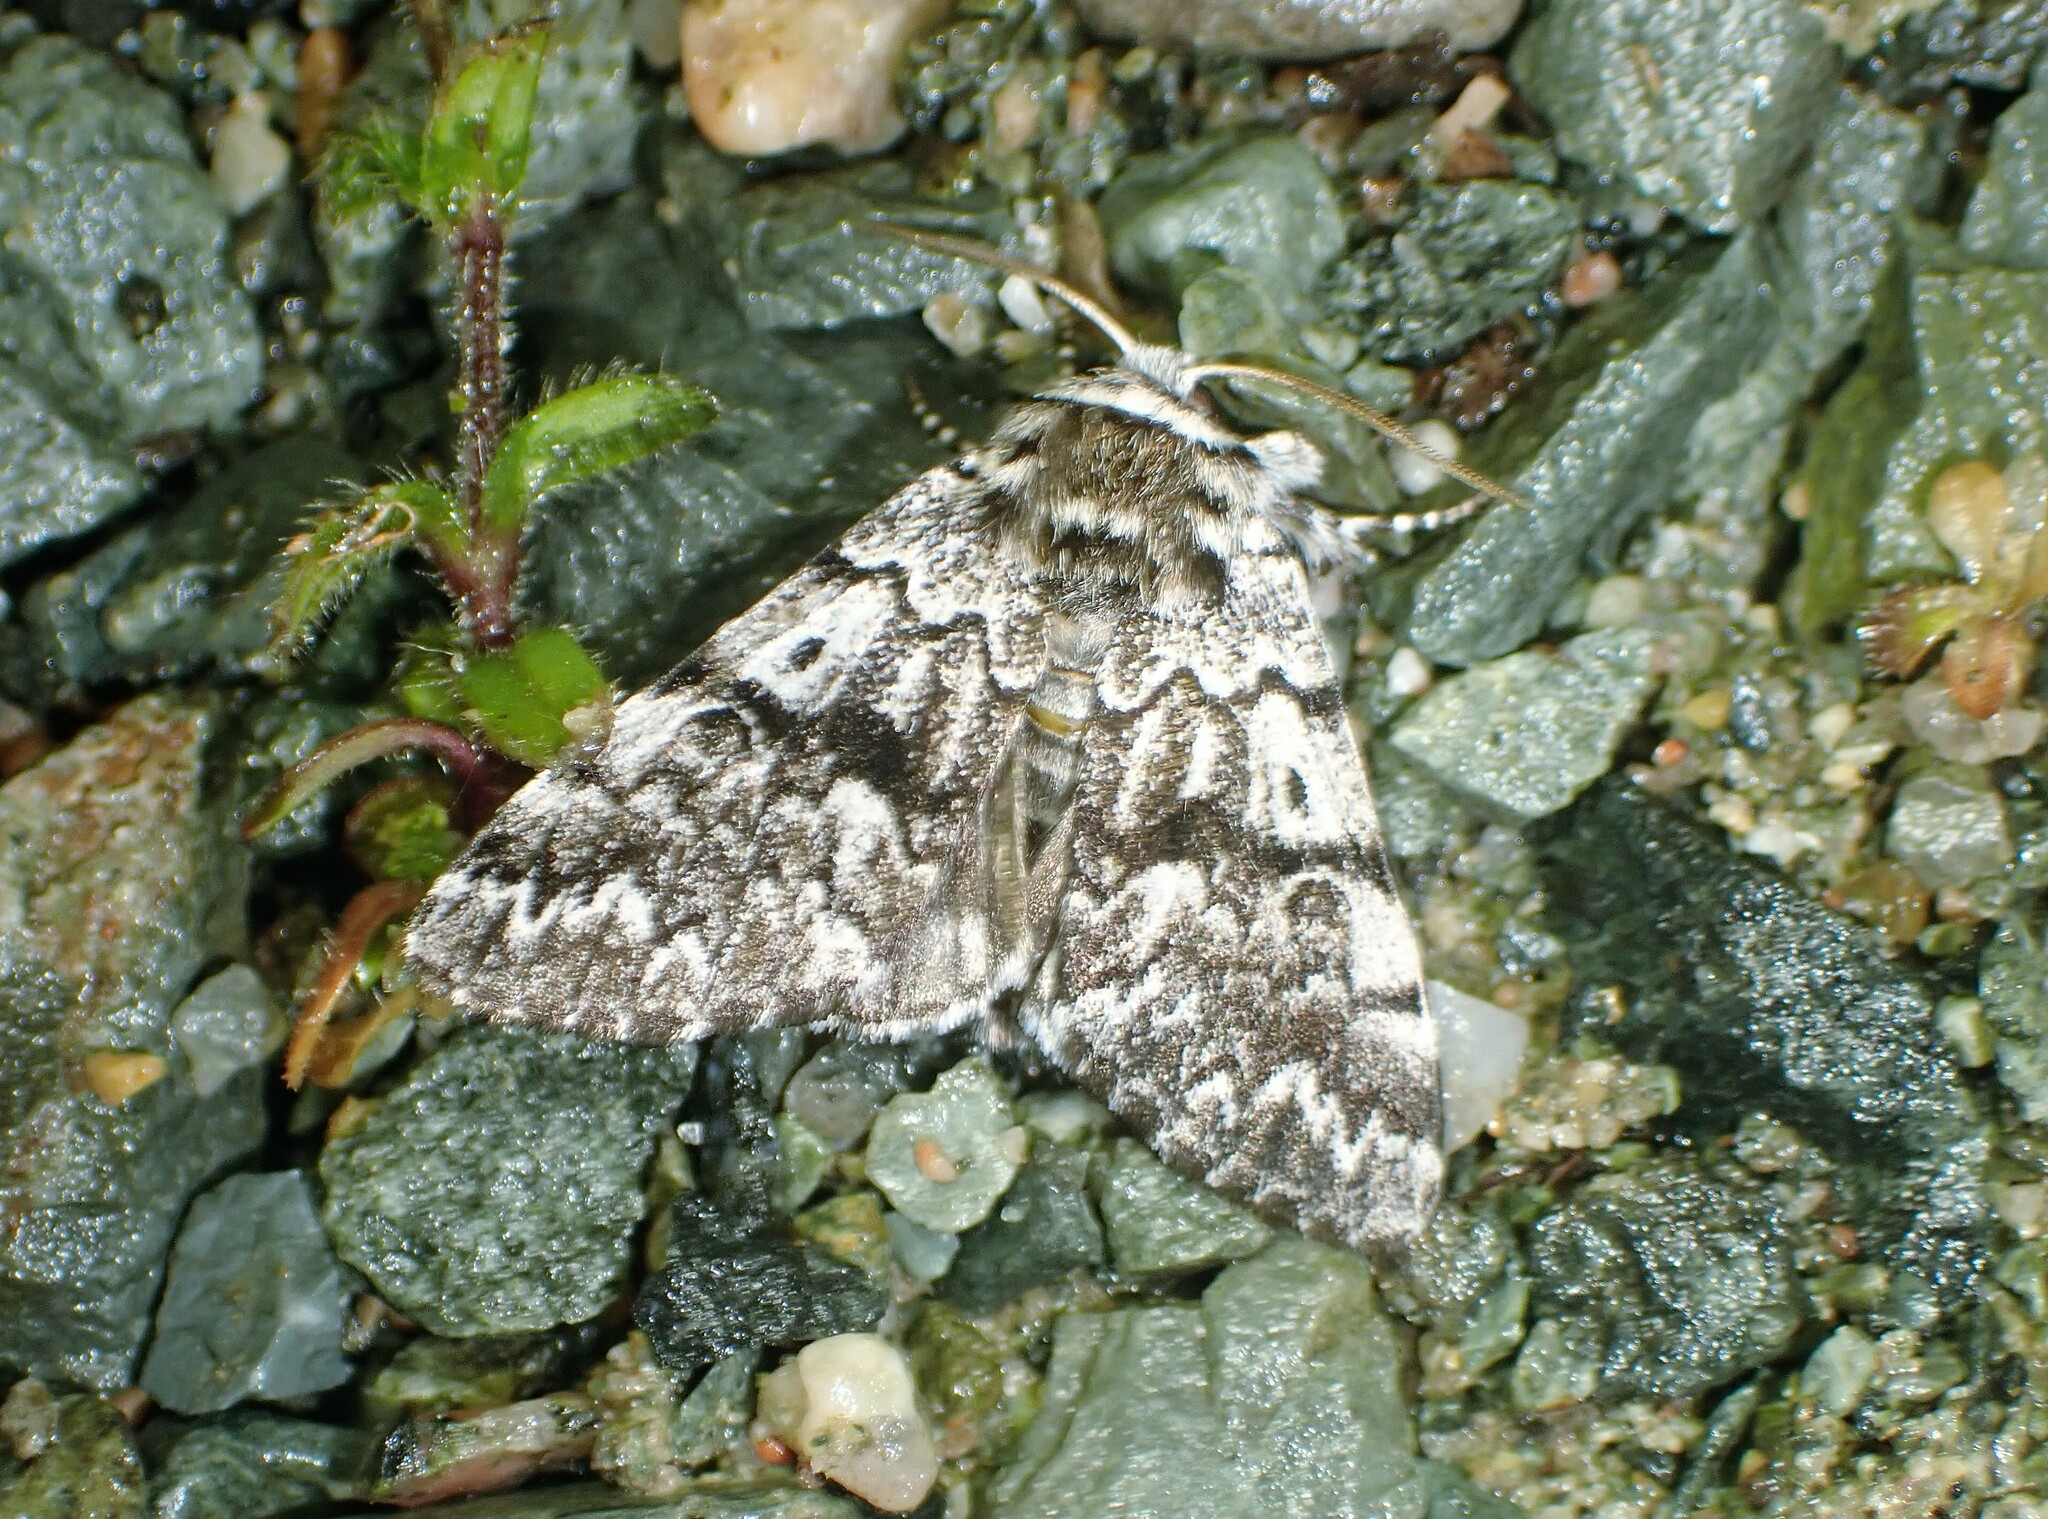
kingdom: Animalia
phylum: Arthropoda
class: Insecta
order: Lepidoptera
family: Noctuidae
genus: Panthea
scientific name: Panthea acronyctoides
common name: Black zigzag moth
